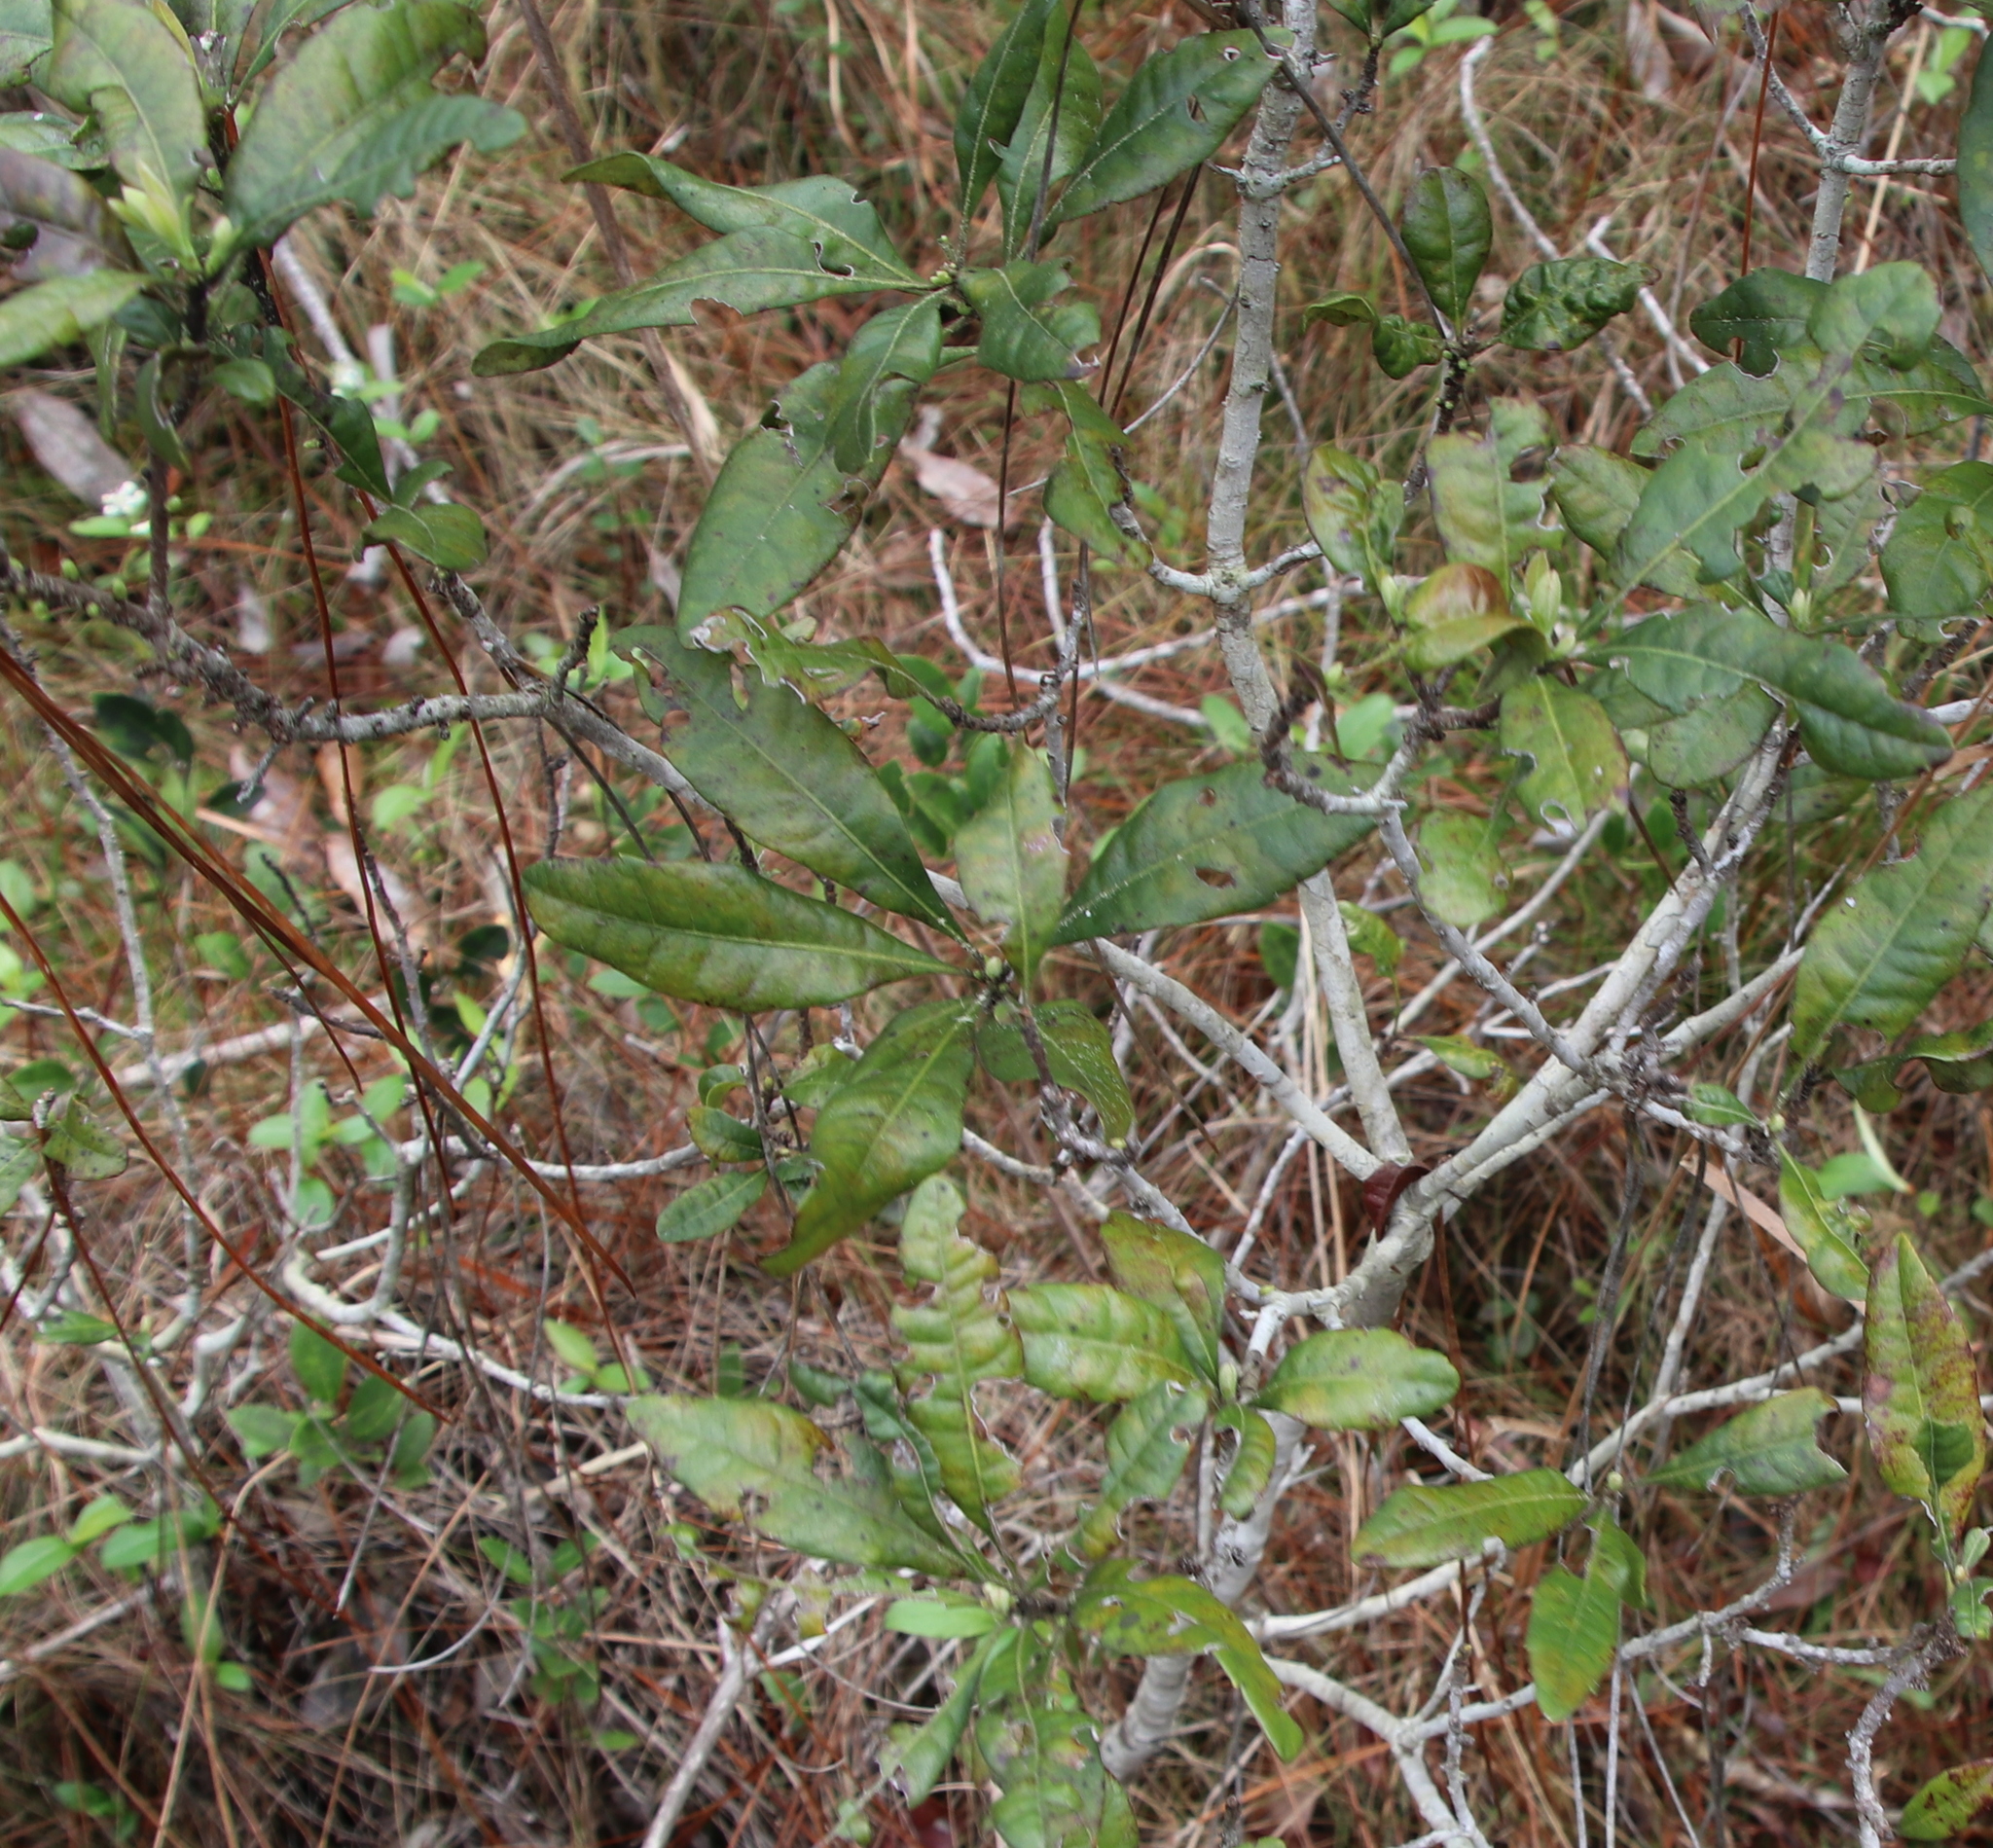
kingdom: Plantae
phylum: Tracheophyta
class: Magnoliopsida
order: Fagales
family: Myricaceae
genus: Morella
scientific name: Morella caroliniensis
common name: Evergreen bayberry
